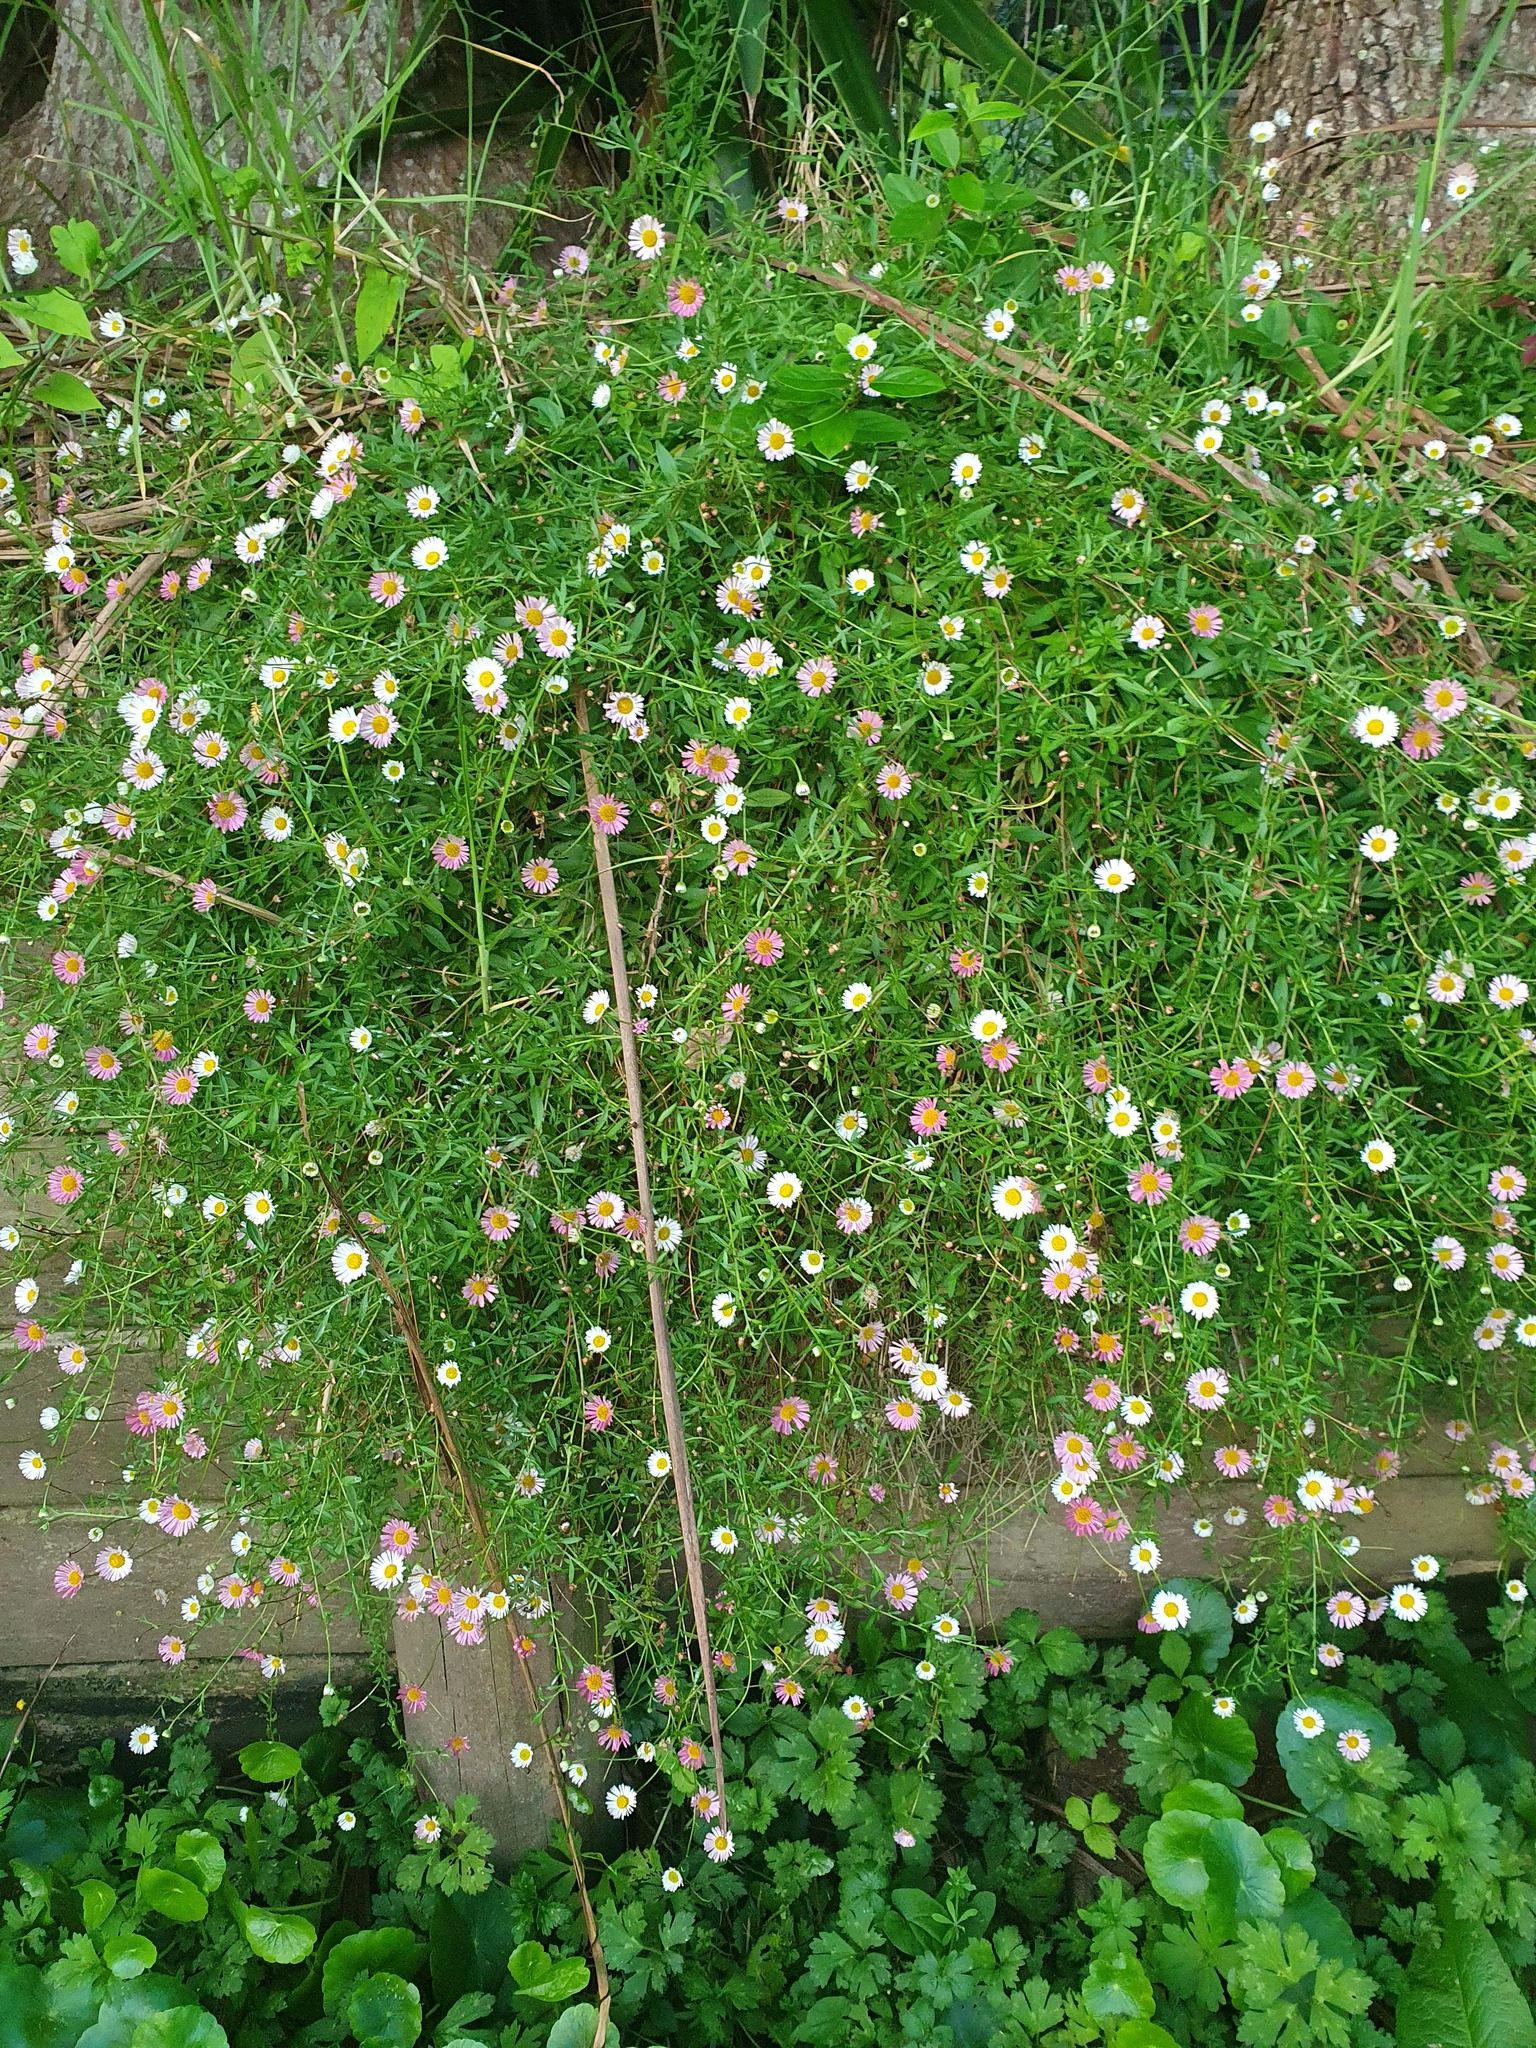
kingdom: Plantae
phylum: Tracheophyta
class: Magnoliopsida
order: Asterales
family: Asteraceae
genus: Erigeron
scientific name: Erigeron karvinskianus
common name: Mexican fleabane
